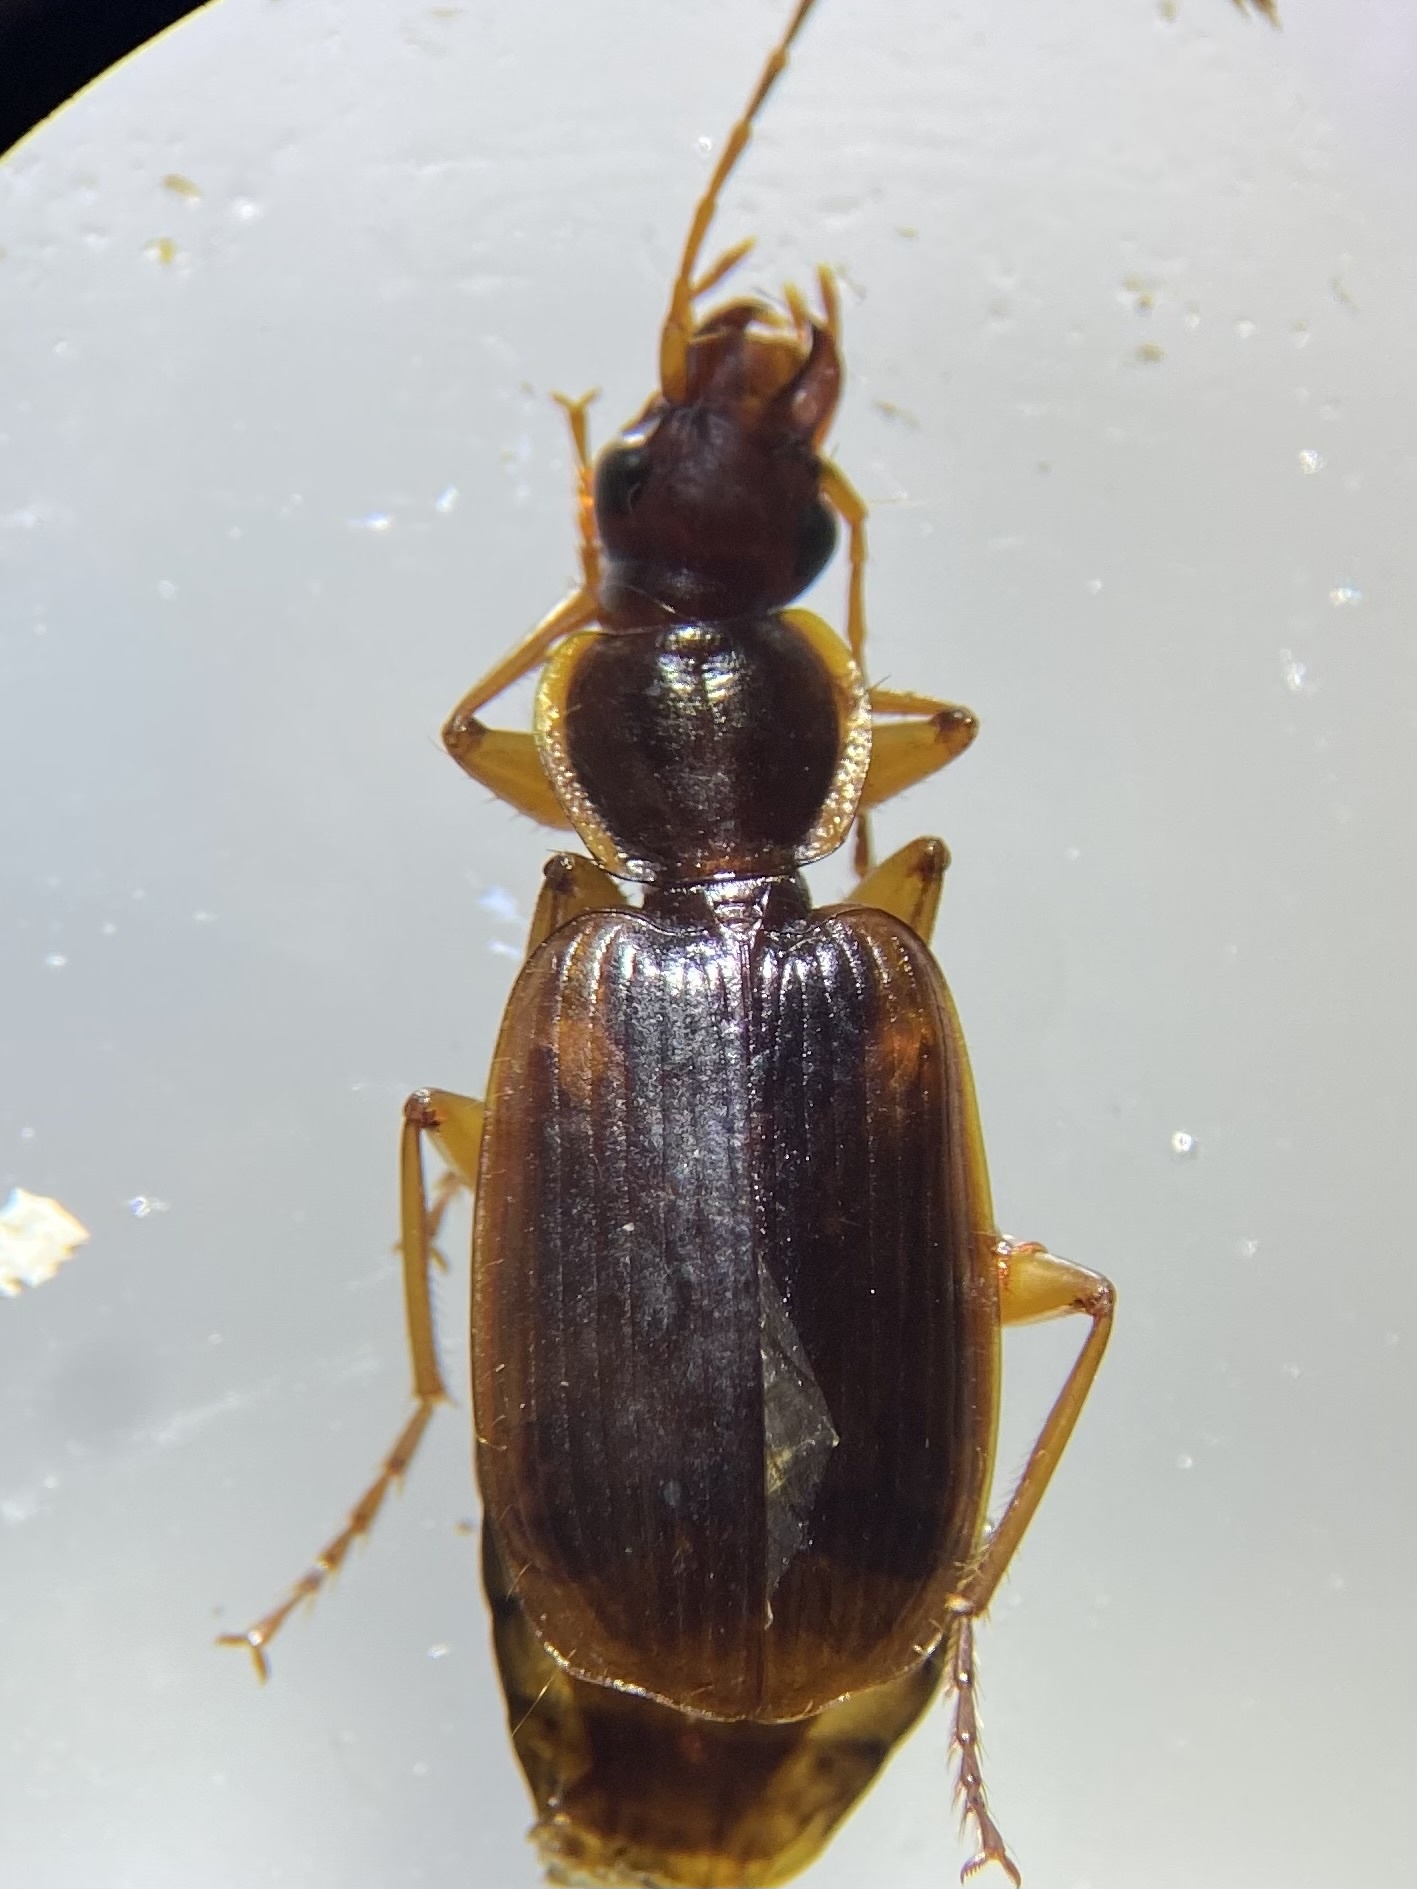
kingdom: Animalia
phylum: Arthropoda
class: Insecta
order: Coleoptera
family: Carabidae
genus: Pinacodera
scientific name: Pinacodera limbata
